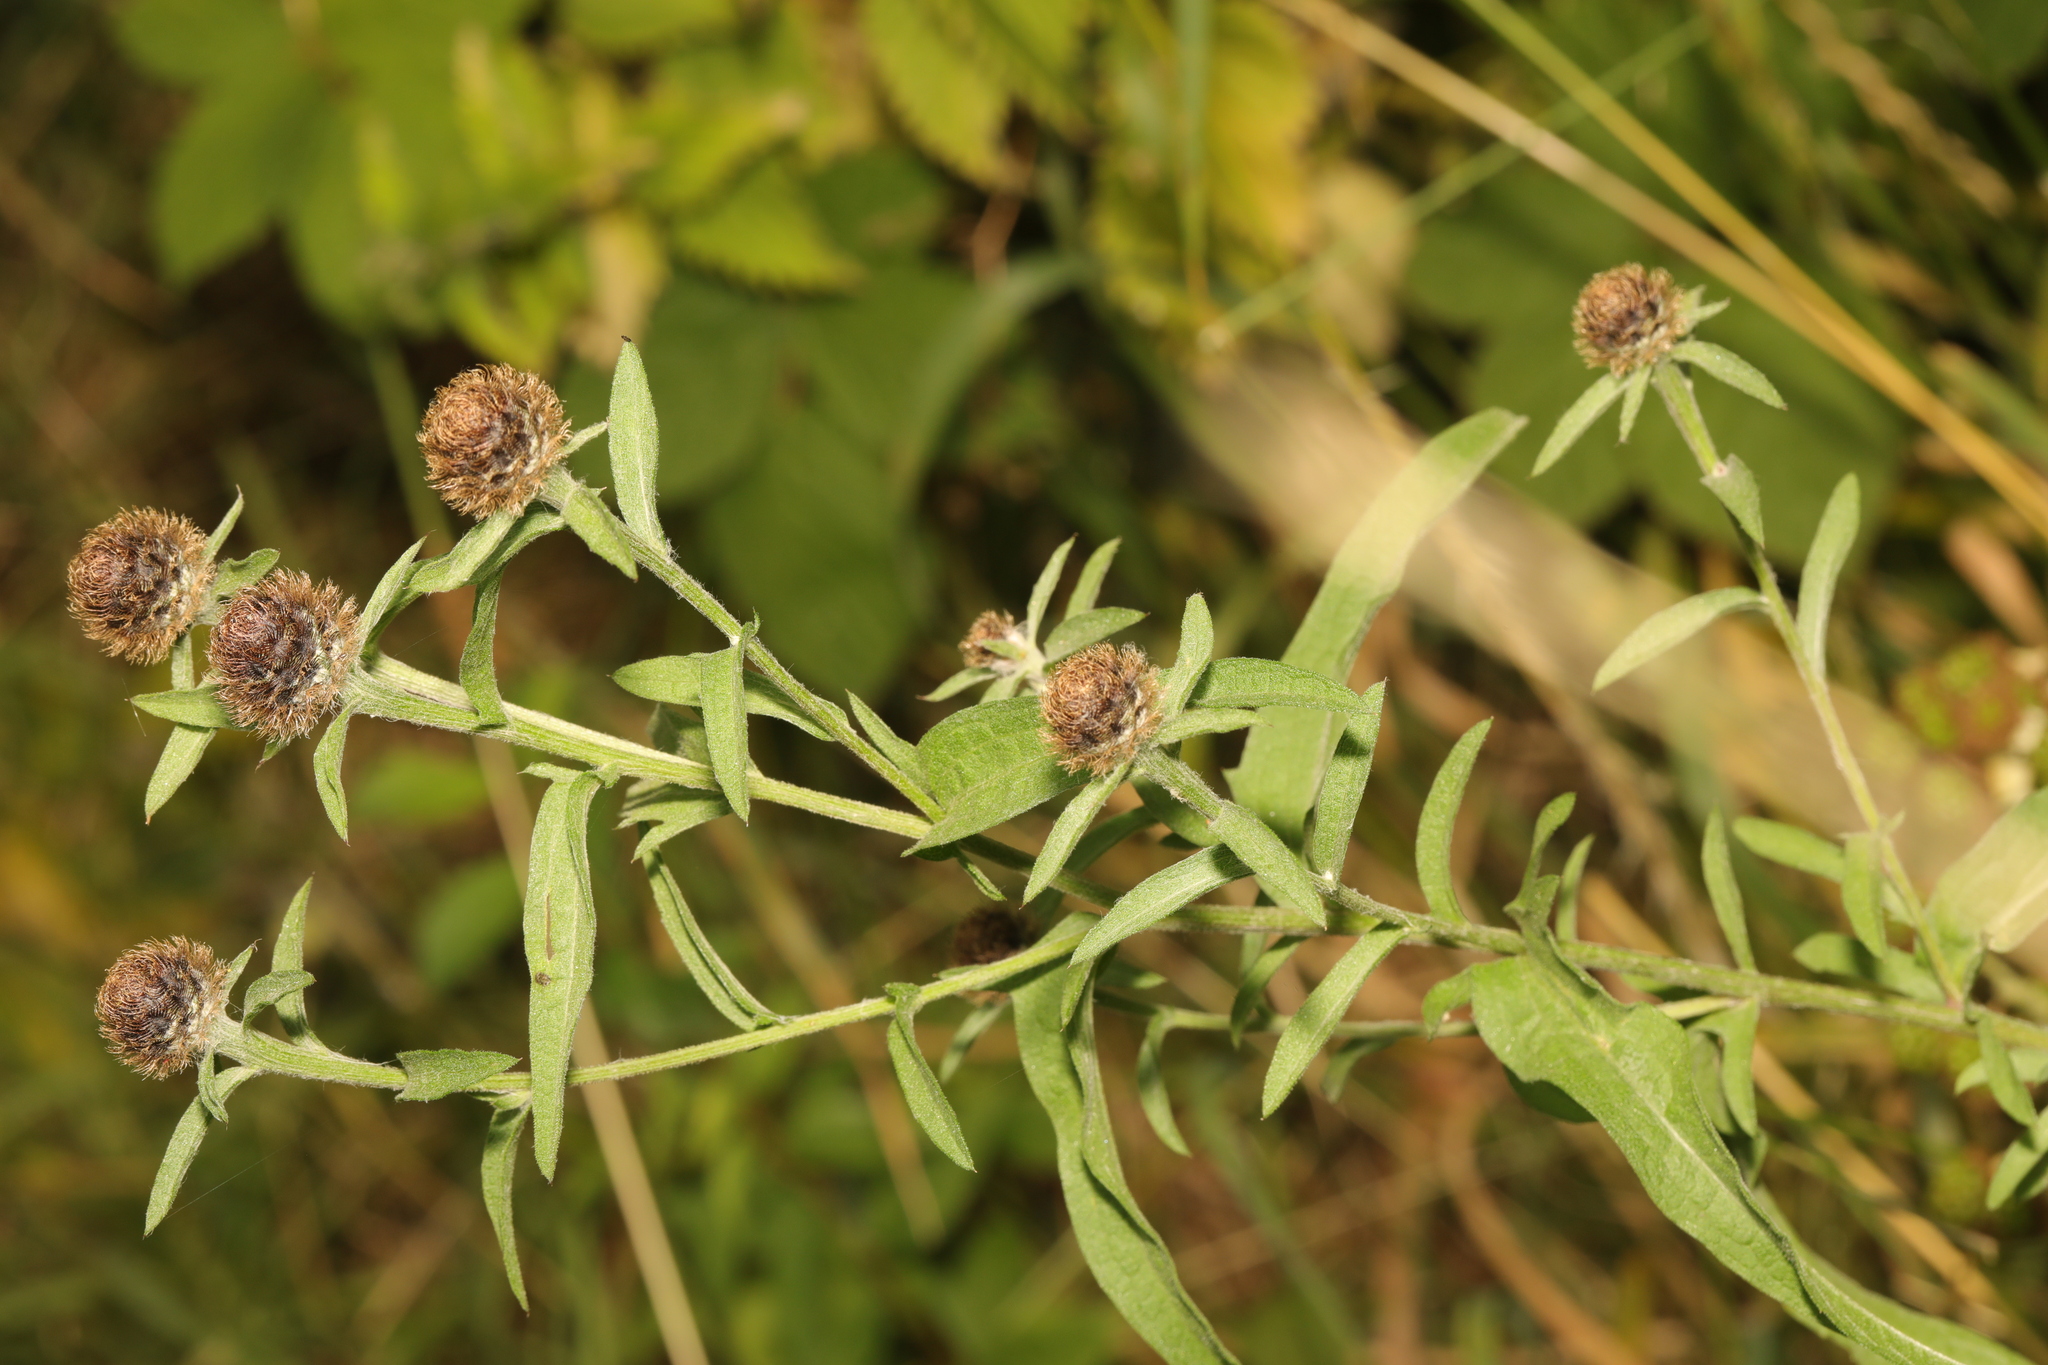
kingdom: Plantae
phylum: Tracheophyta
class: Magnoliopsida
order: Asterales
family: Asteraceae
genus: Centaurea
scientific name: Centaurea nigra
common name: Lesser knapweed
